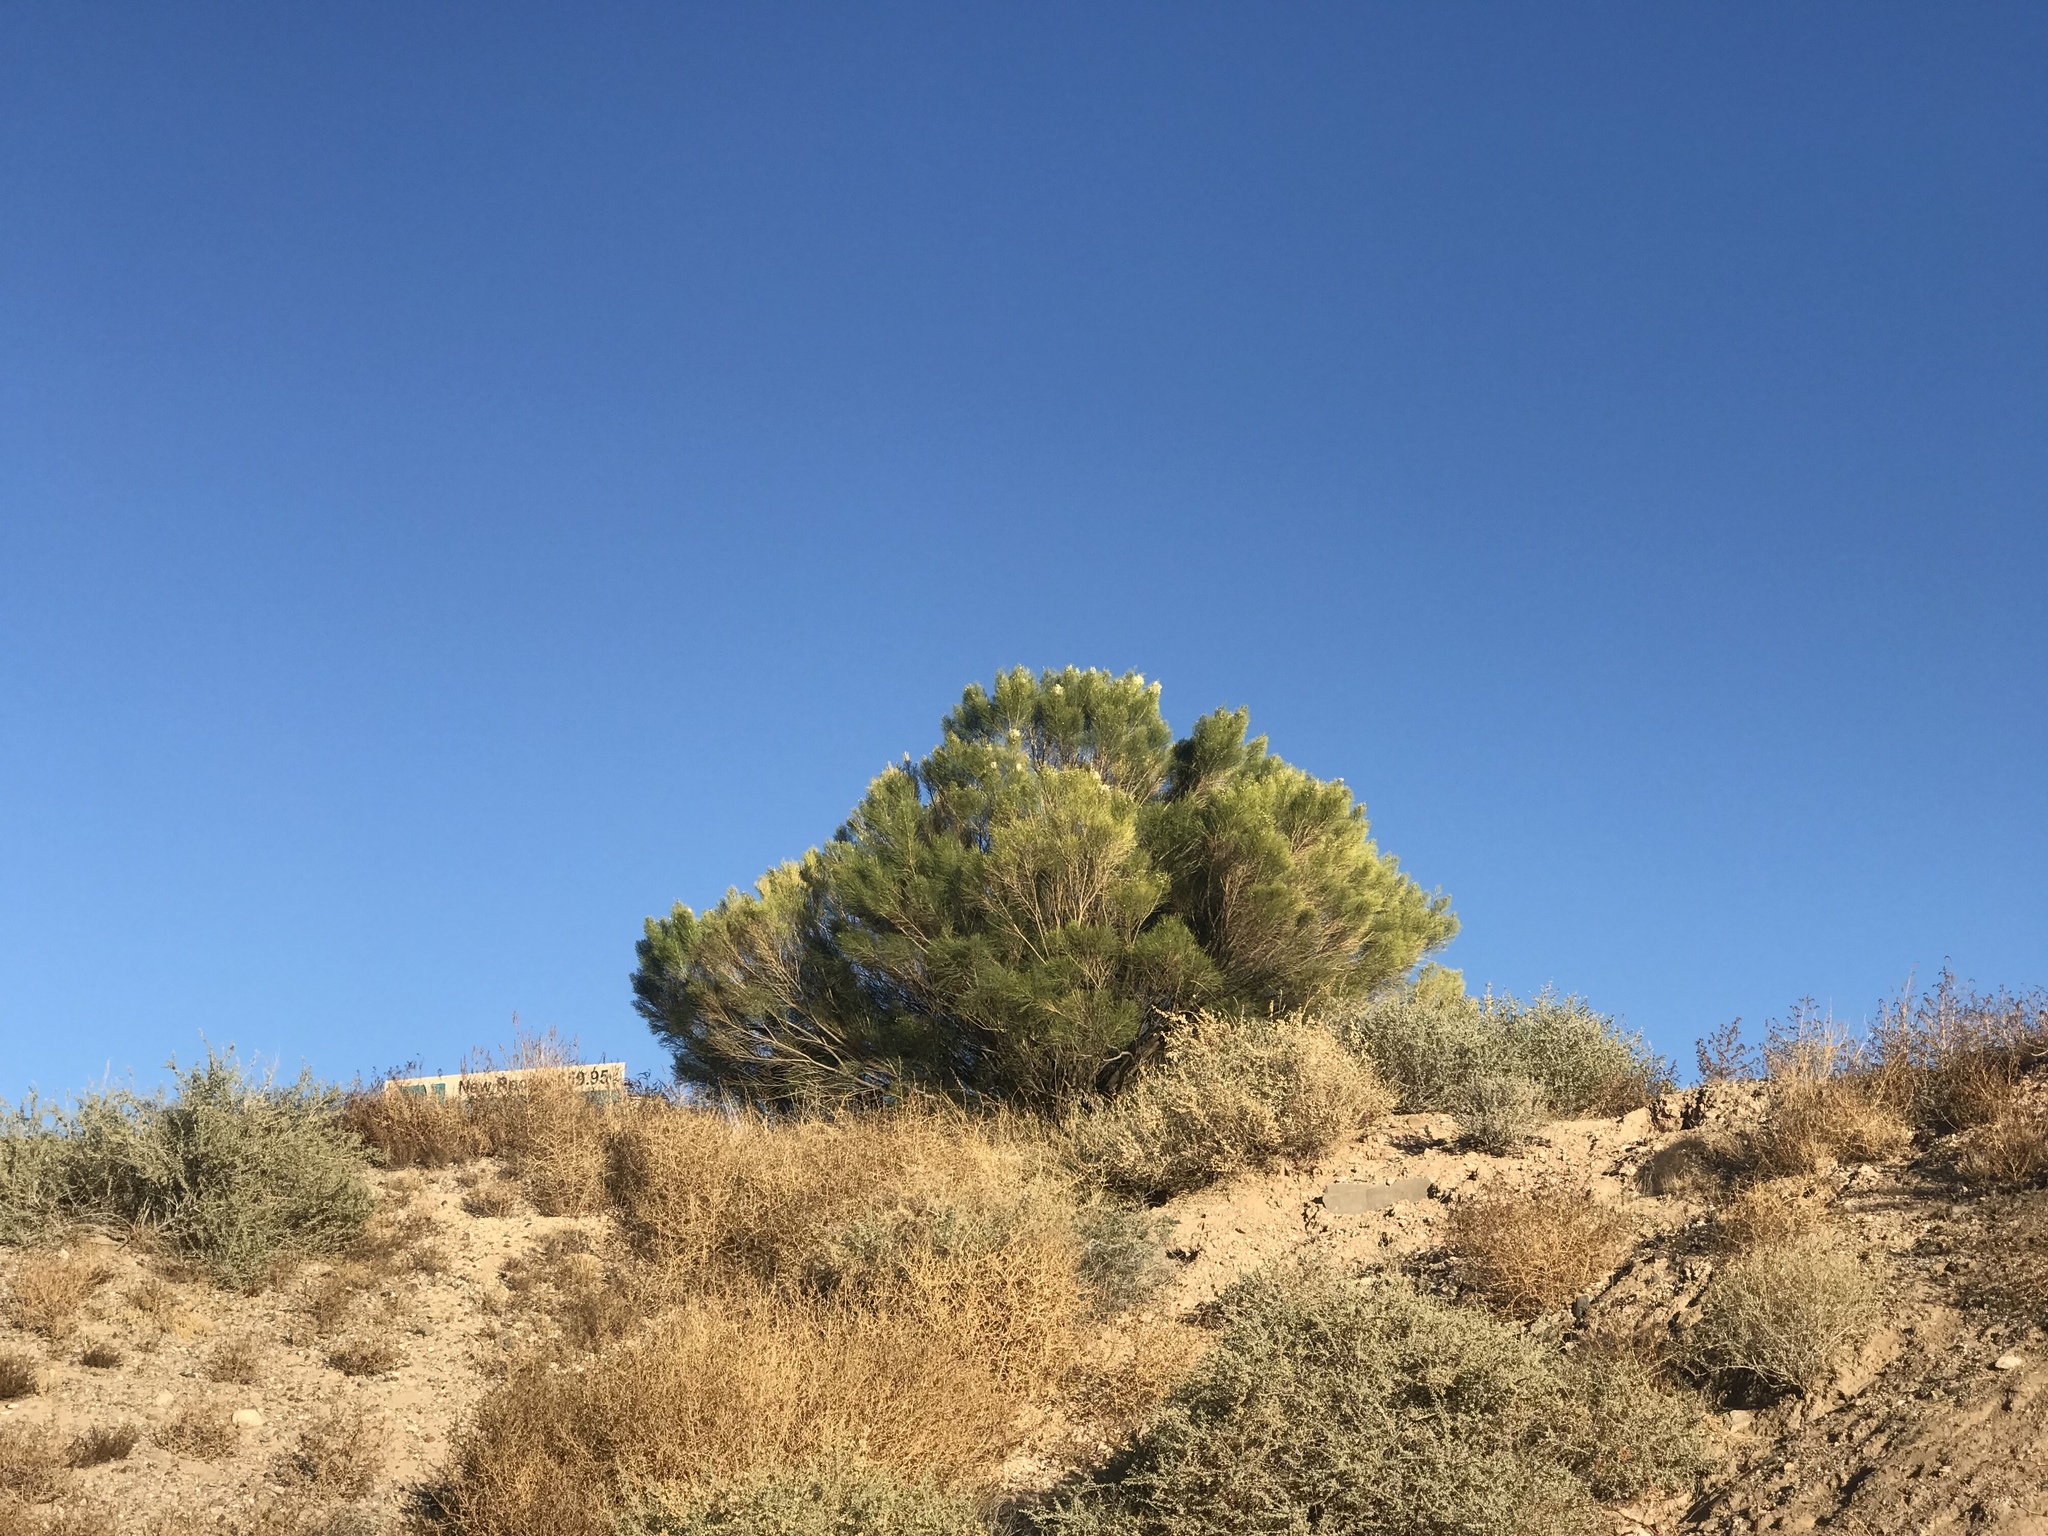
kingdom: Plantae
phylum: Tracheophyta
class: Magnoliopsida
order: Asterales
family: Asteraceae
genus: Baccharis
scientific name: Baccharis sarothroides
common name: Desert-broom
